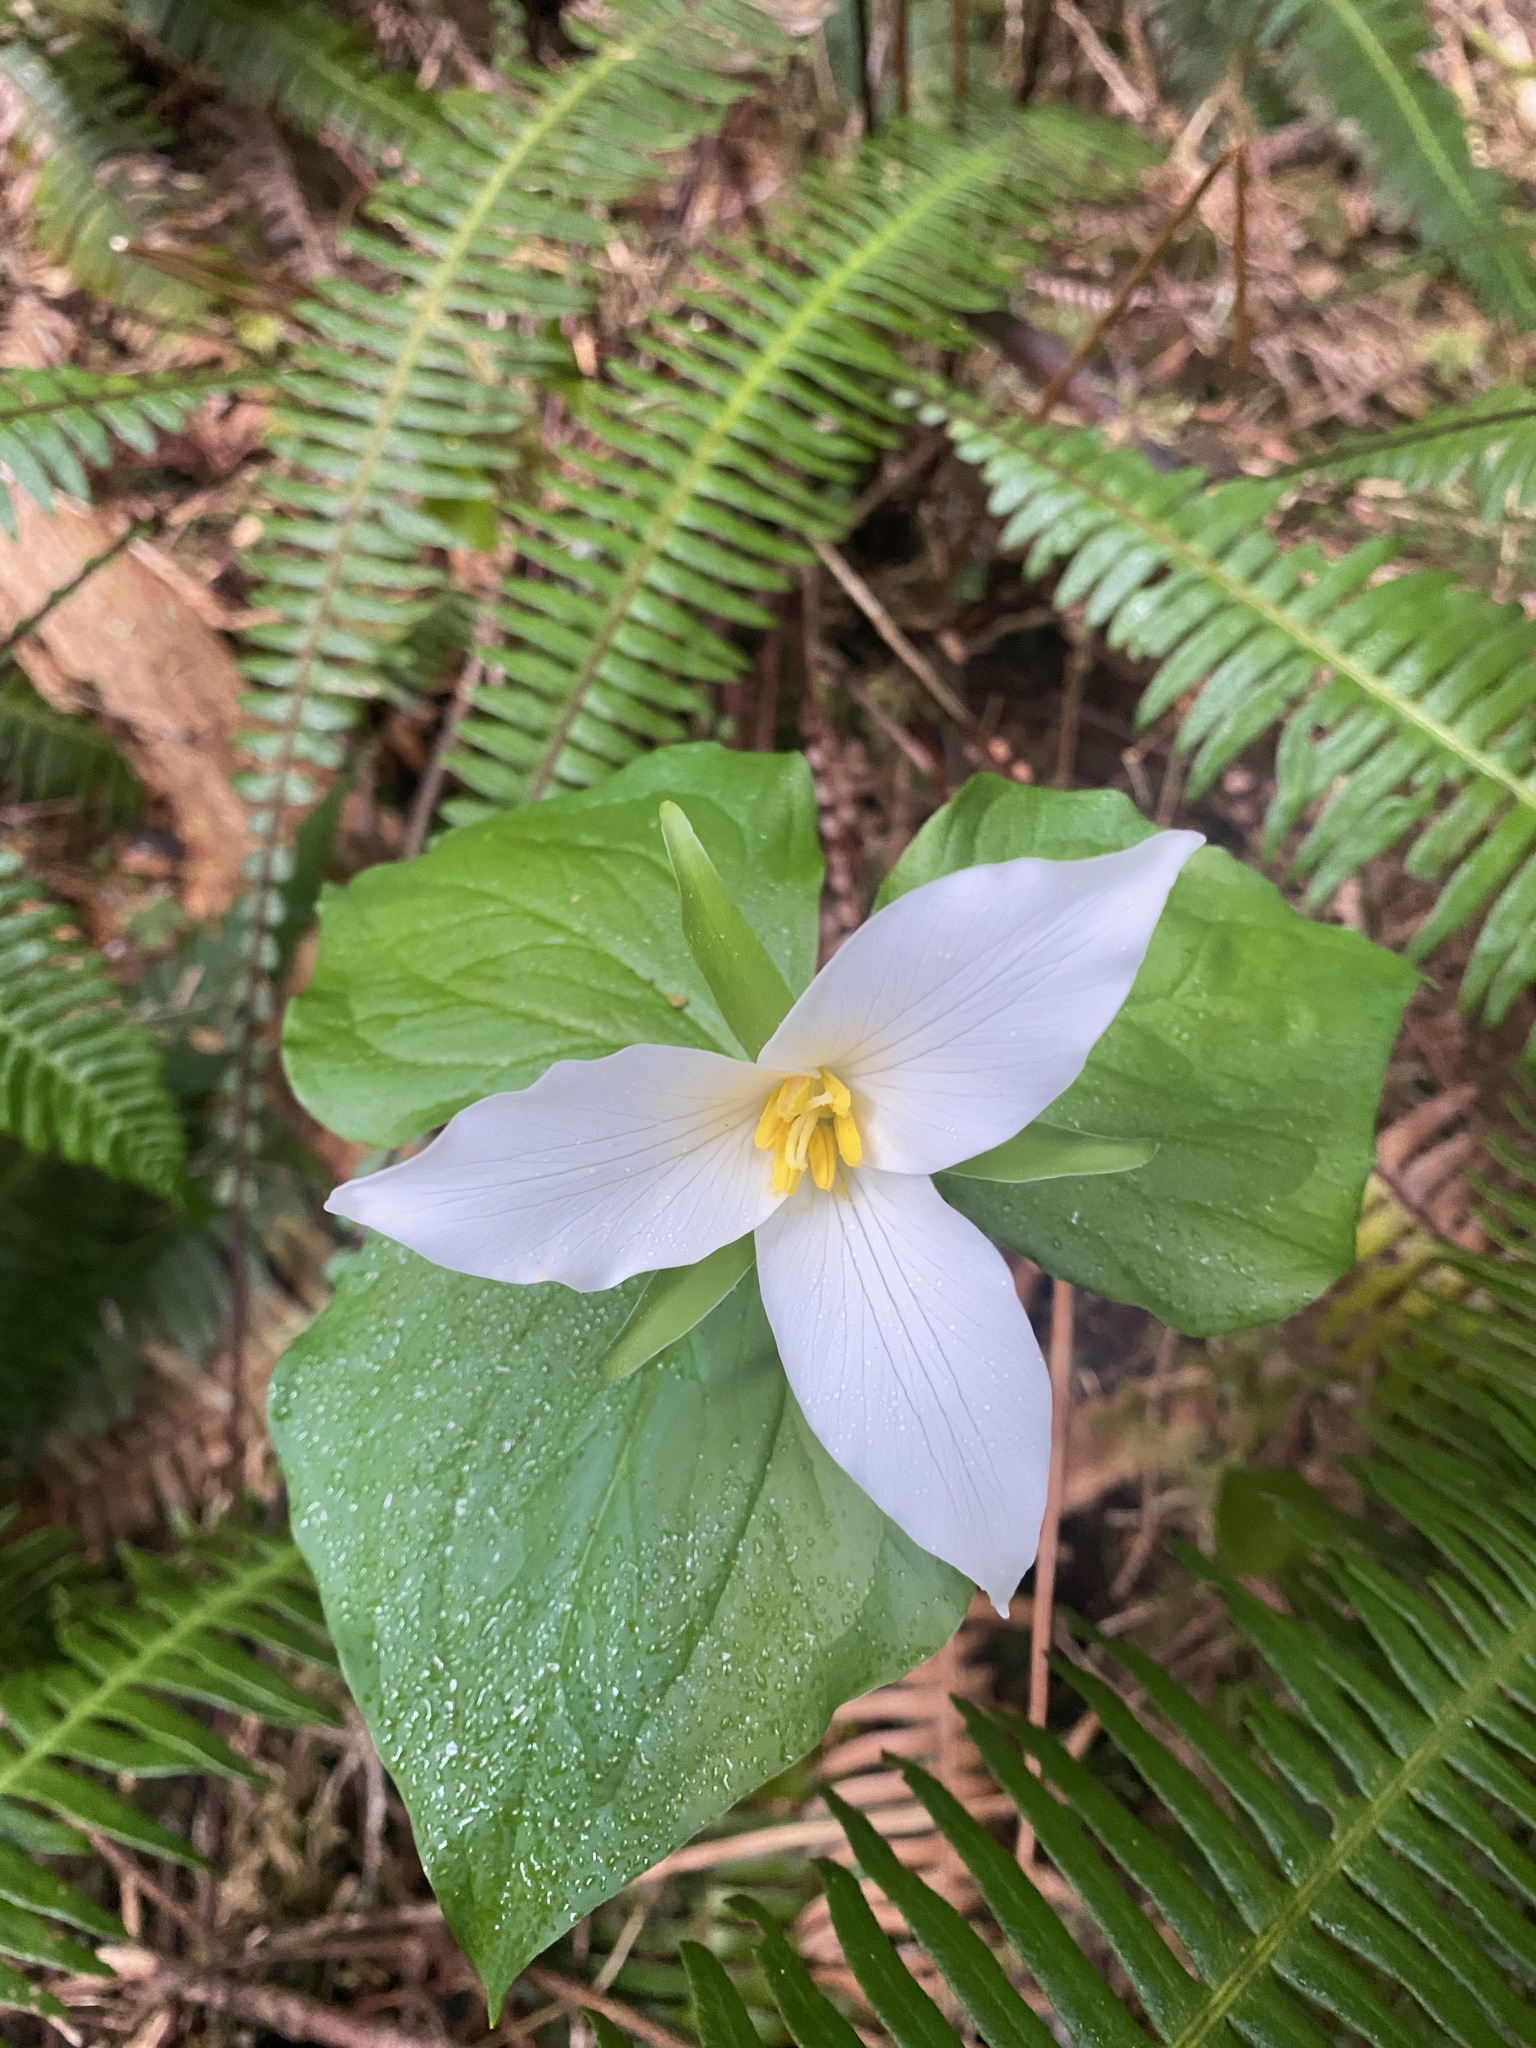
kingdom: Plantae
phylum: Tracheophyta
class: Liliopsida
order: Liliales
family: Melanthiaceae
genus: Trillium
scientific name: Trillium ovatum
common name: Pacific trillium
